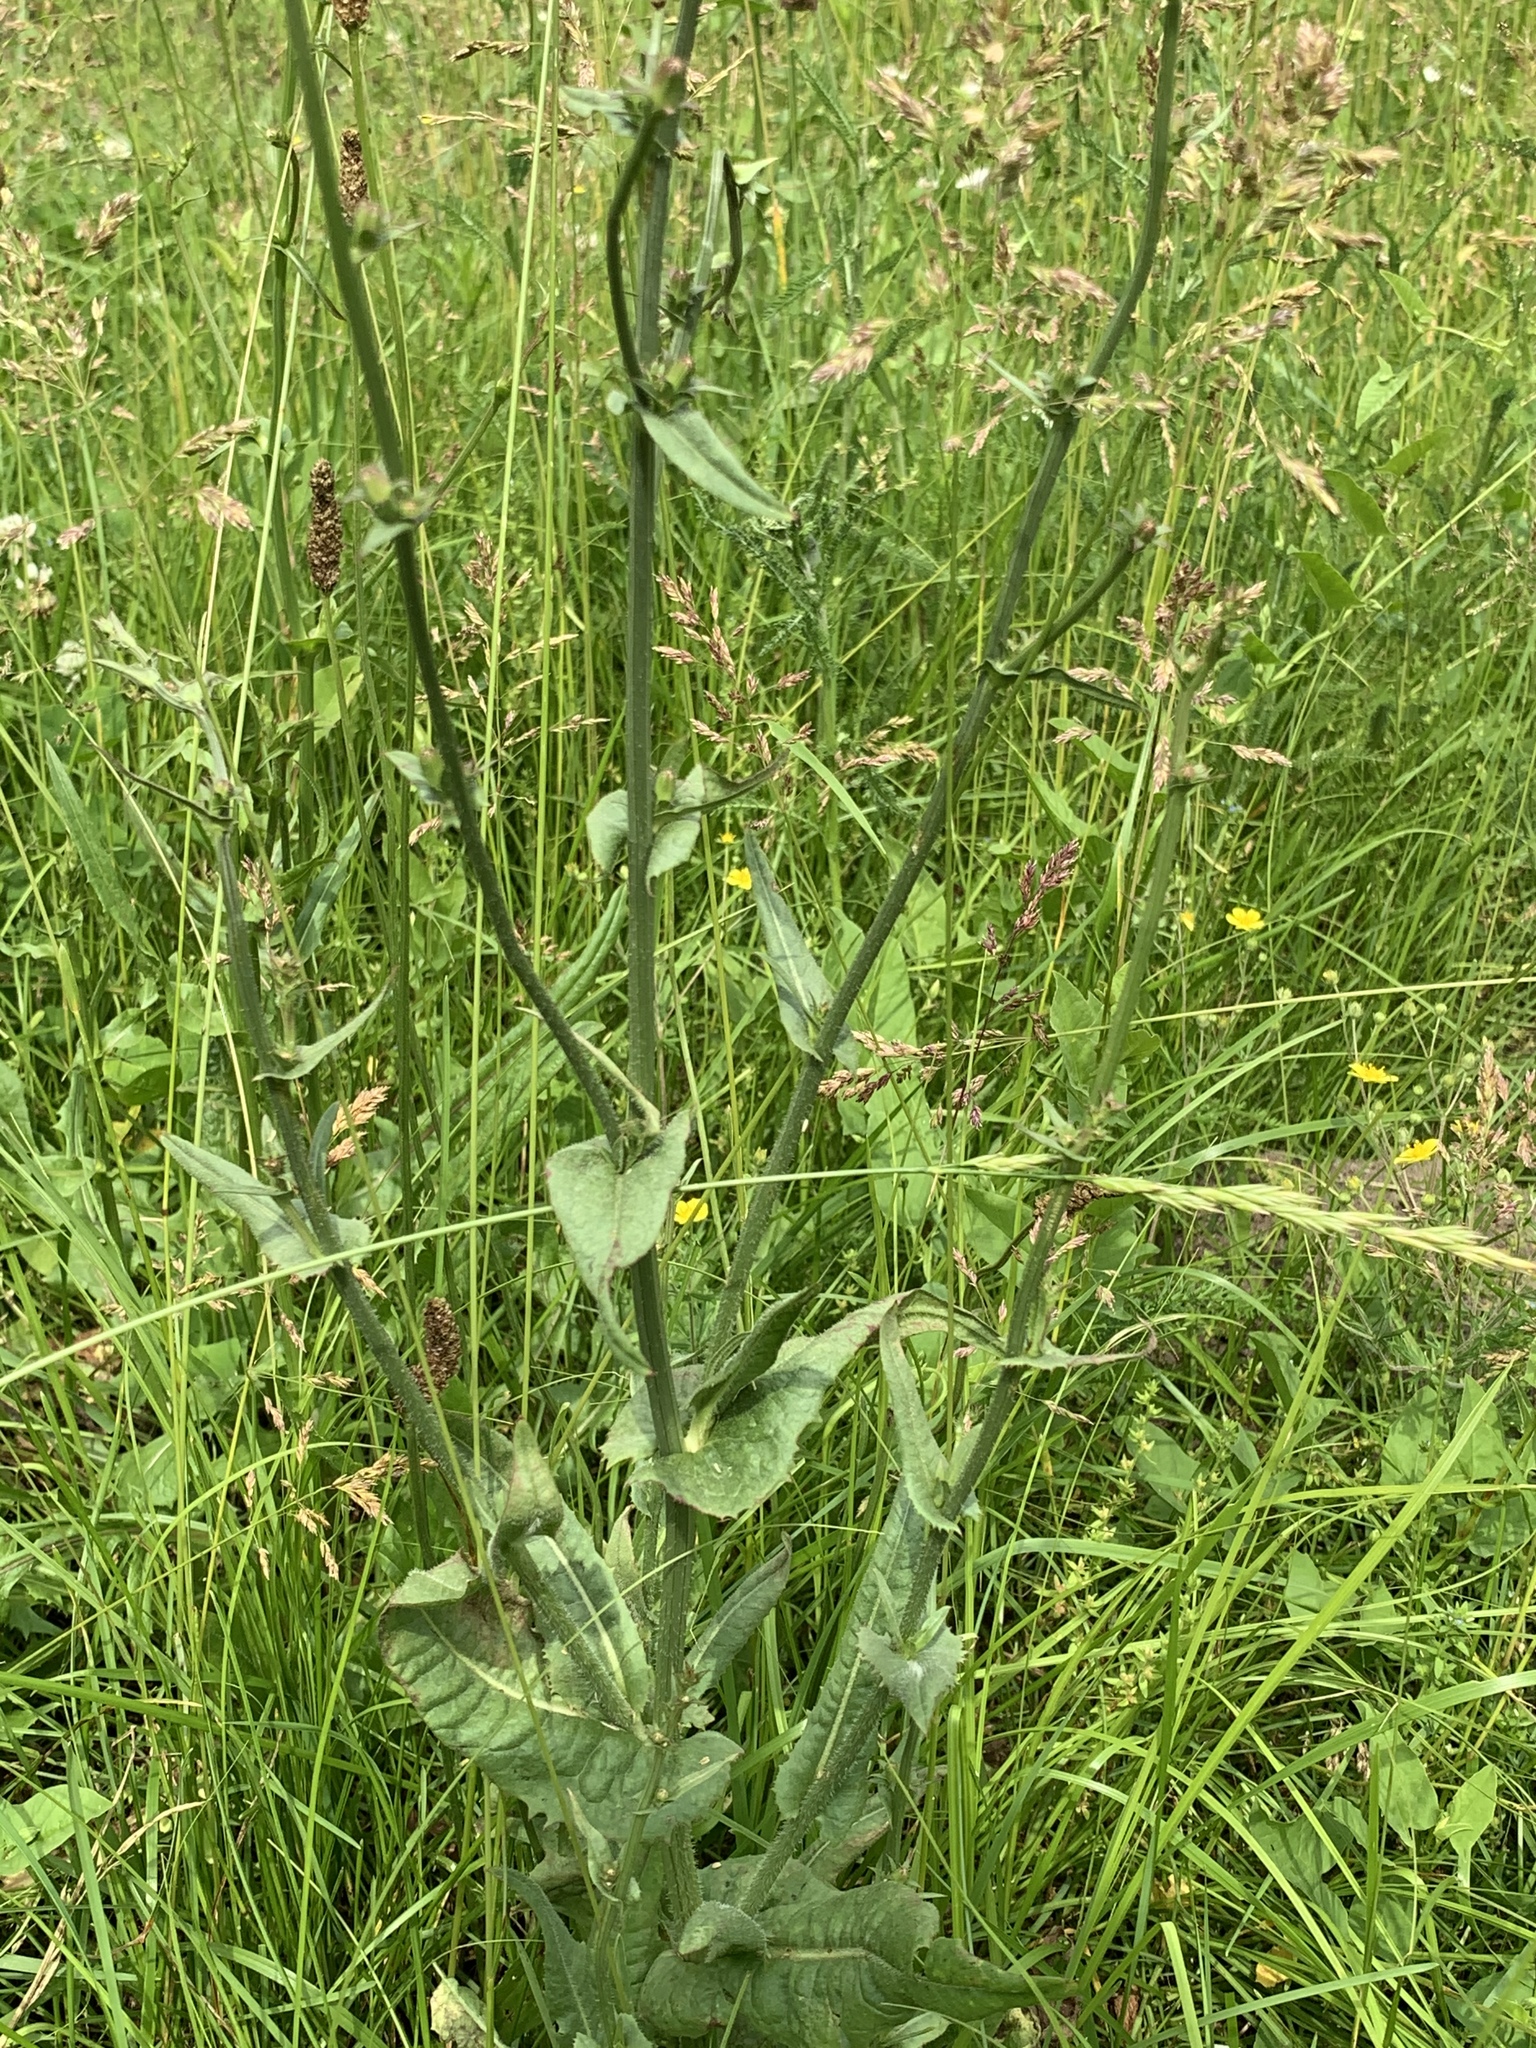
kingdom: Plantae
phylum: Tracheophyta
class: Magnoliopsida
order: Asterales
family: Asteraceae
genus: Cichorium
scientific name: Cichorium intybus
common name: Chicory
